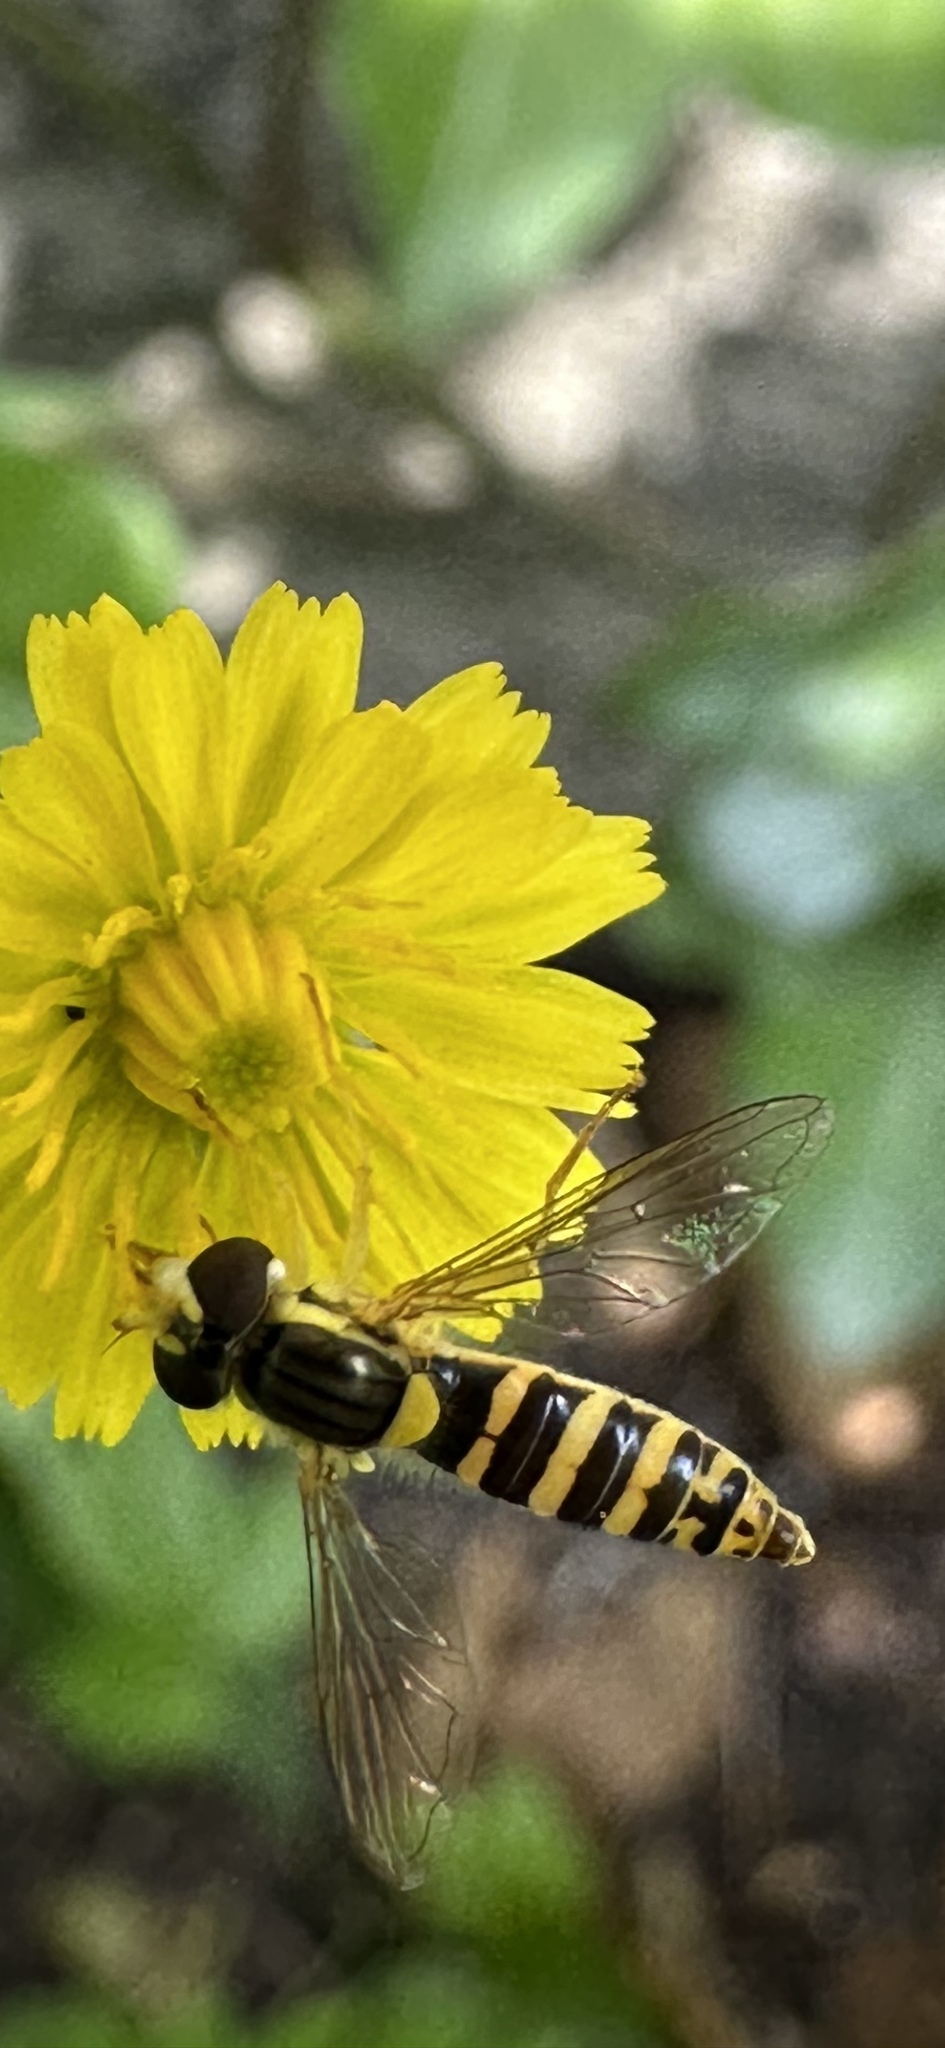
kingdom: Animalia
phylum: Arthropoda
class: Insecta
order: Diptera
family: Syrphidae
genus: Sphaerophoria
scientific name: Sphaerophoria
